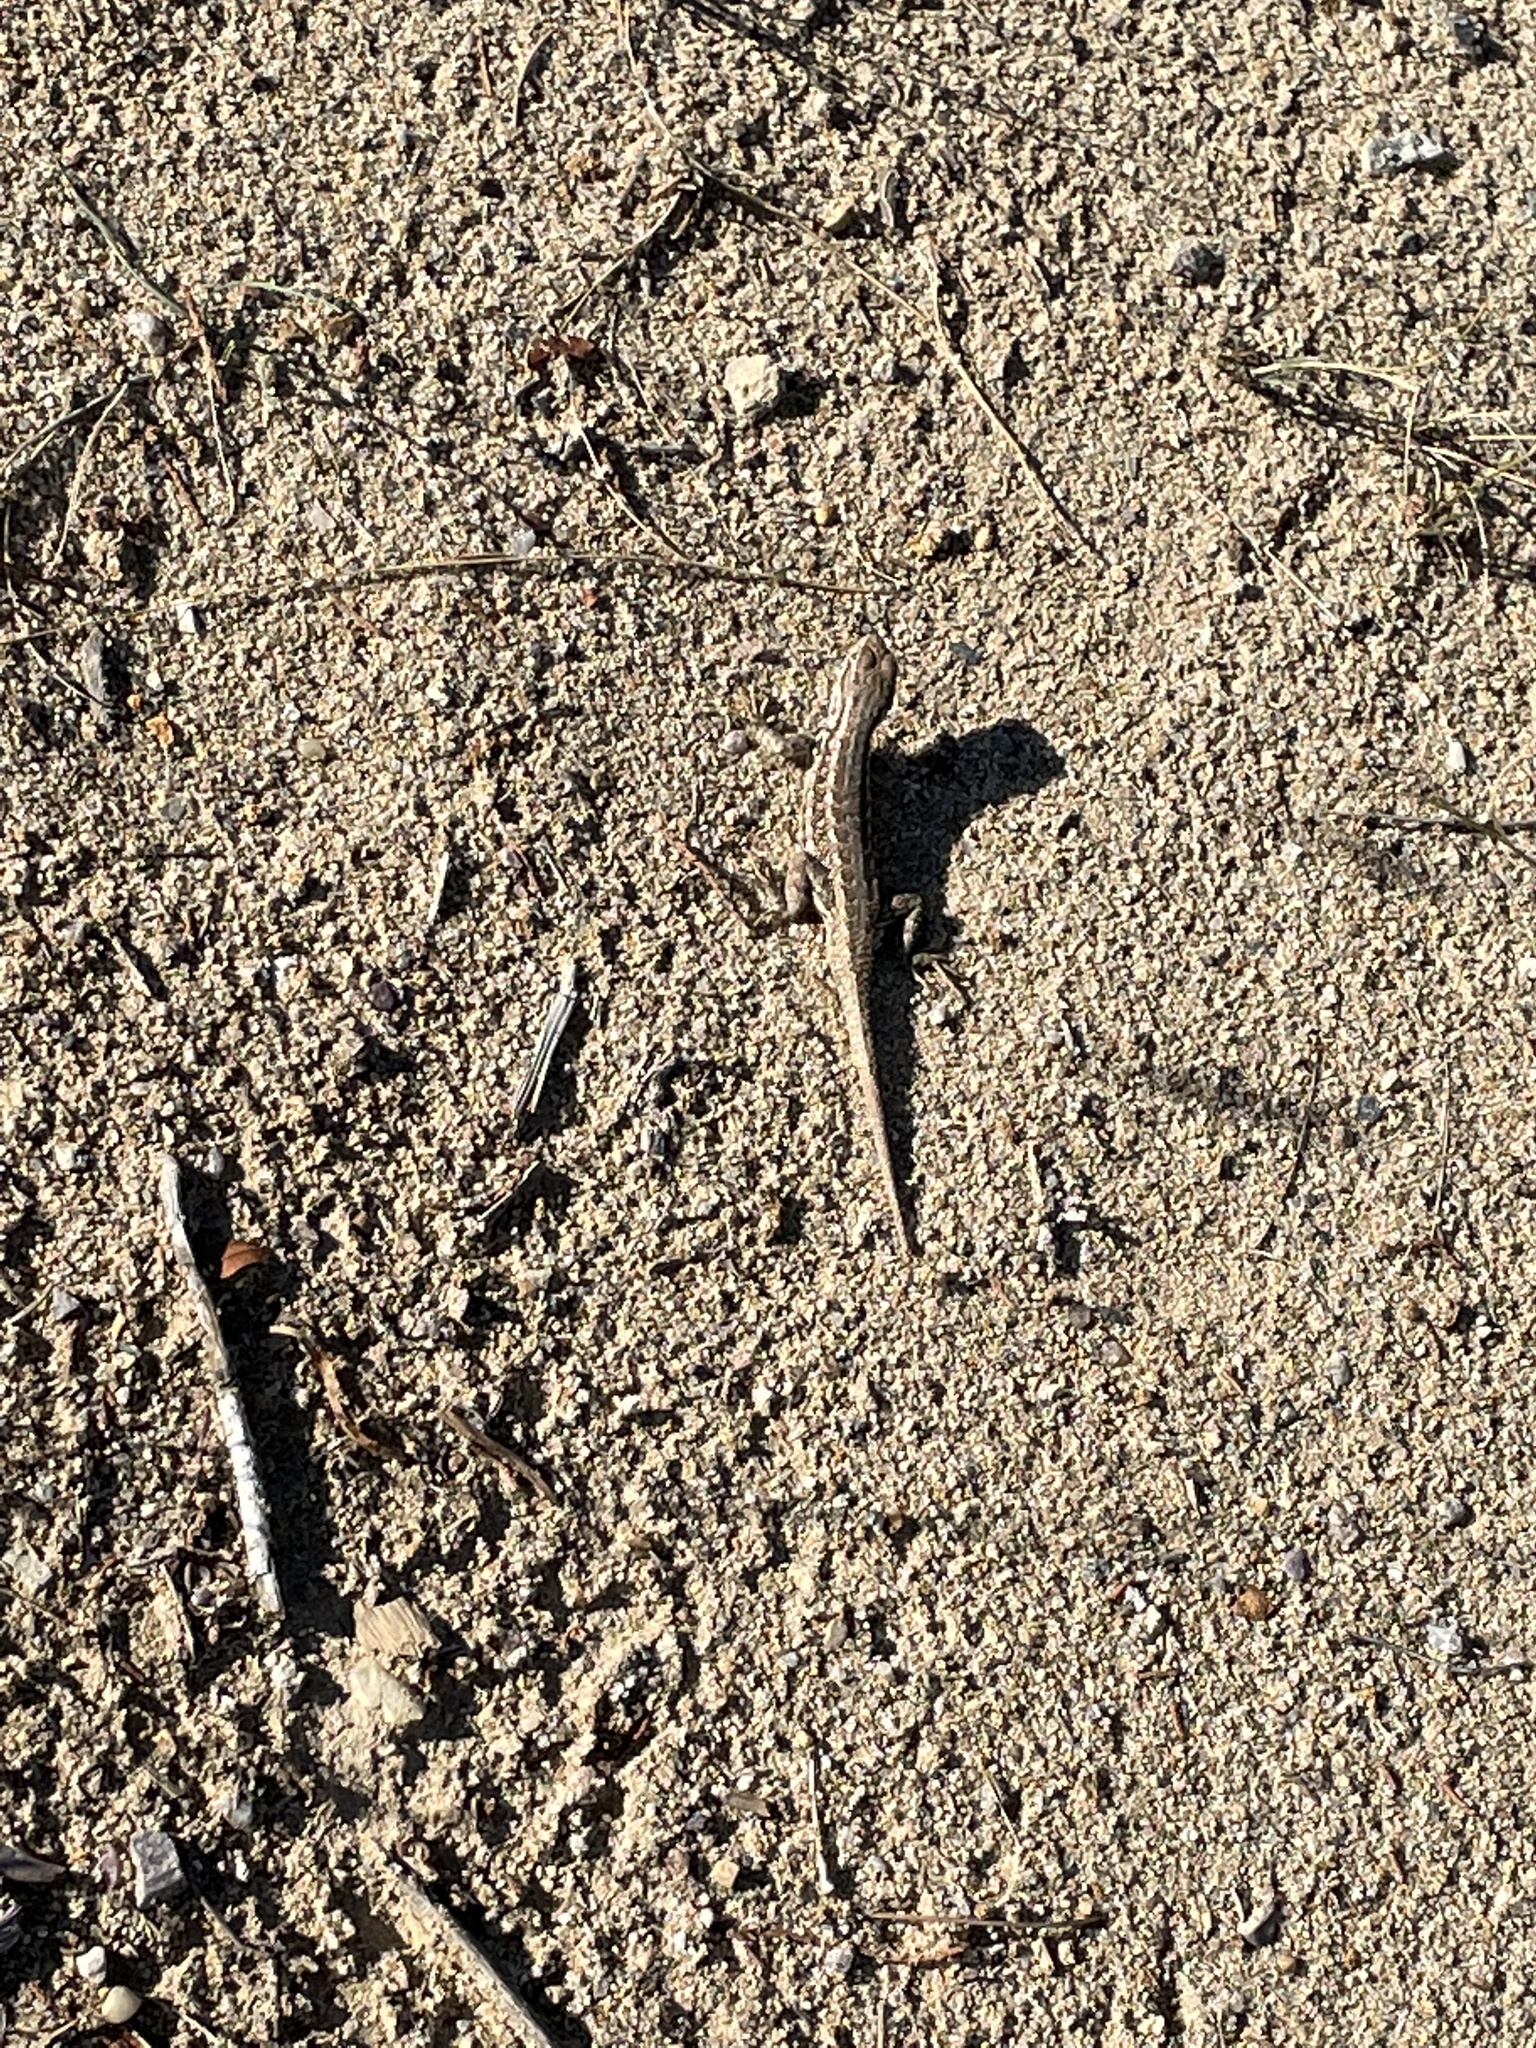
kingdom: Animalia
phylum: Chordata
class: Squamata
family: Phrynosomatidae
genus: Sceloporus
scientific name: Sceloporus graciosus
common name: Sagebrush lizard
